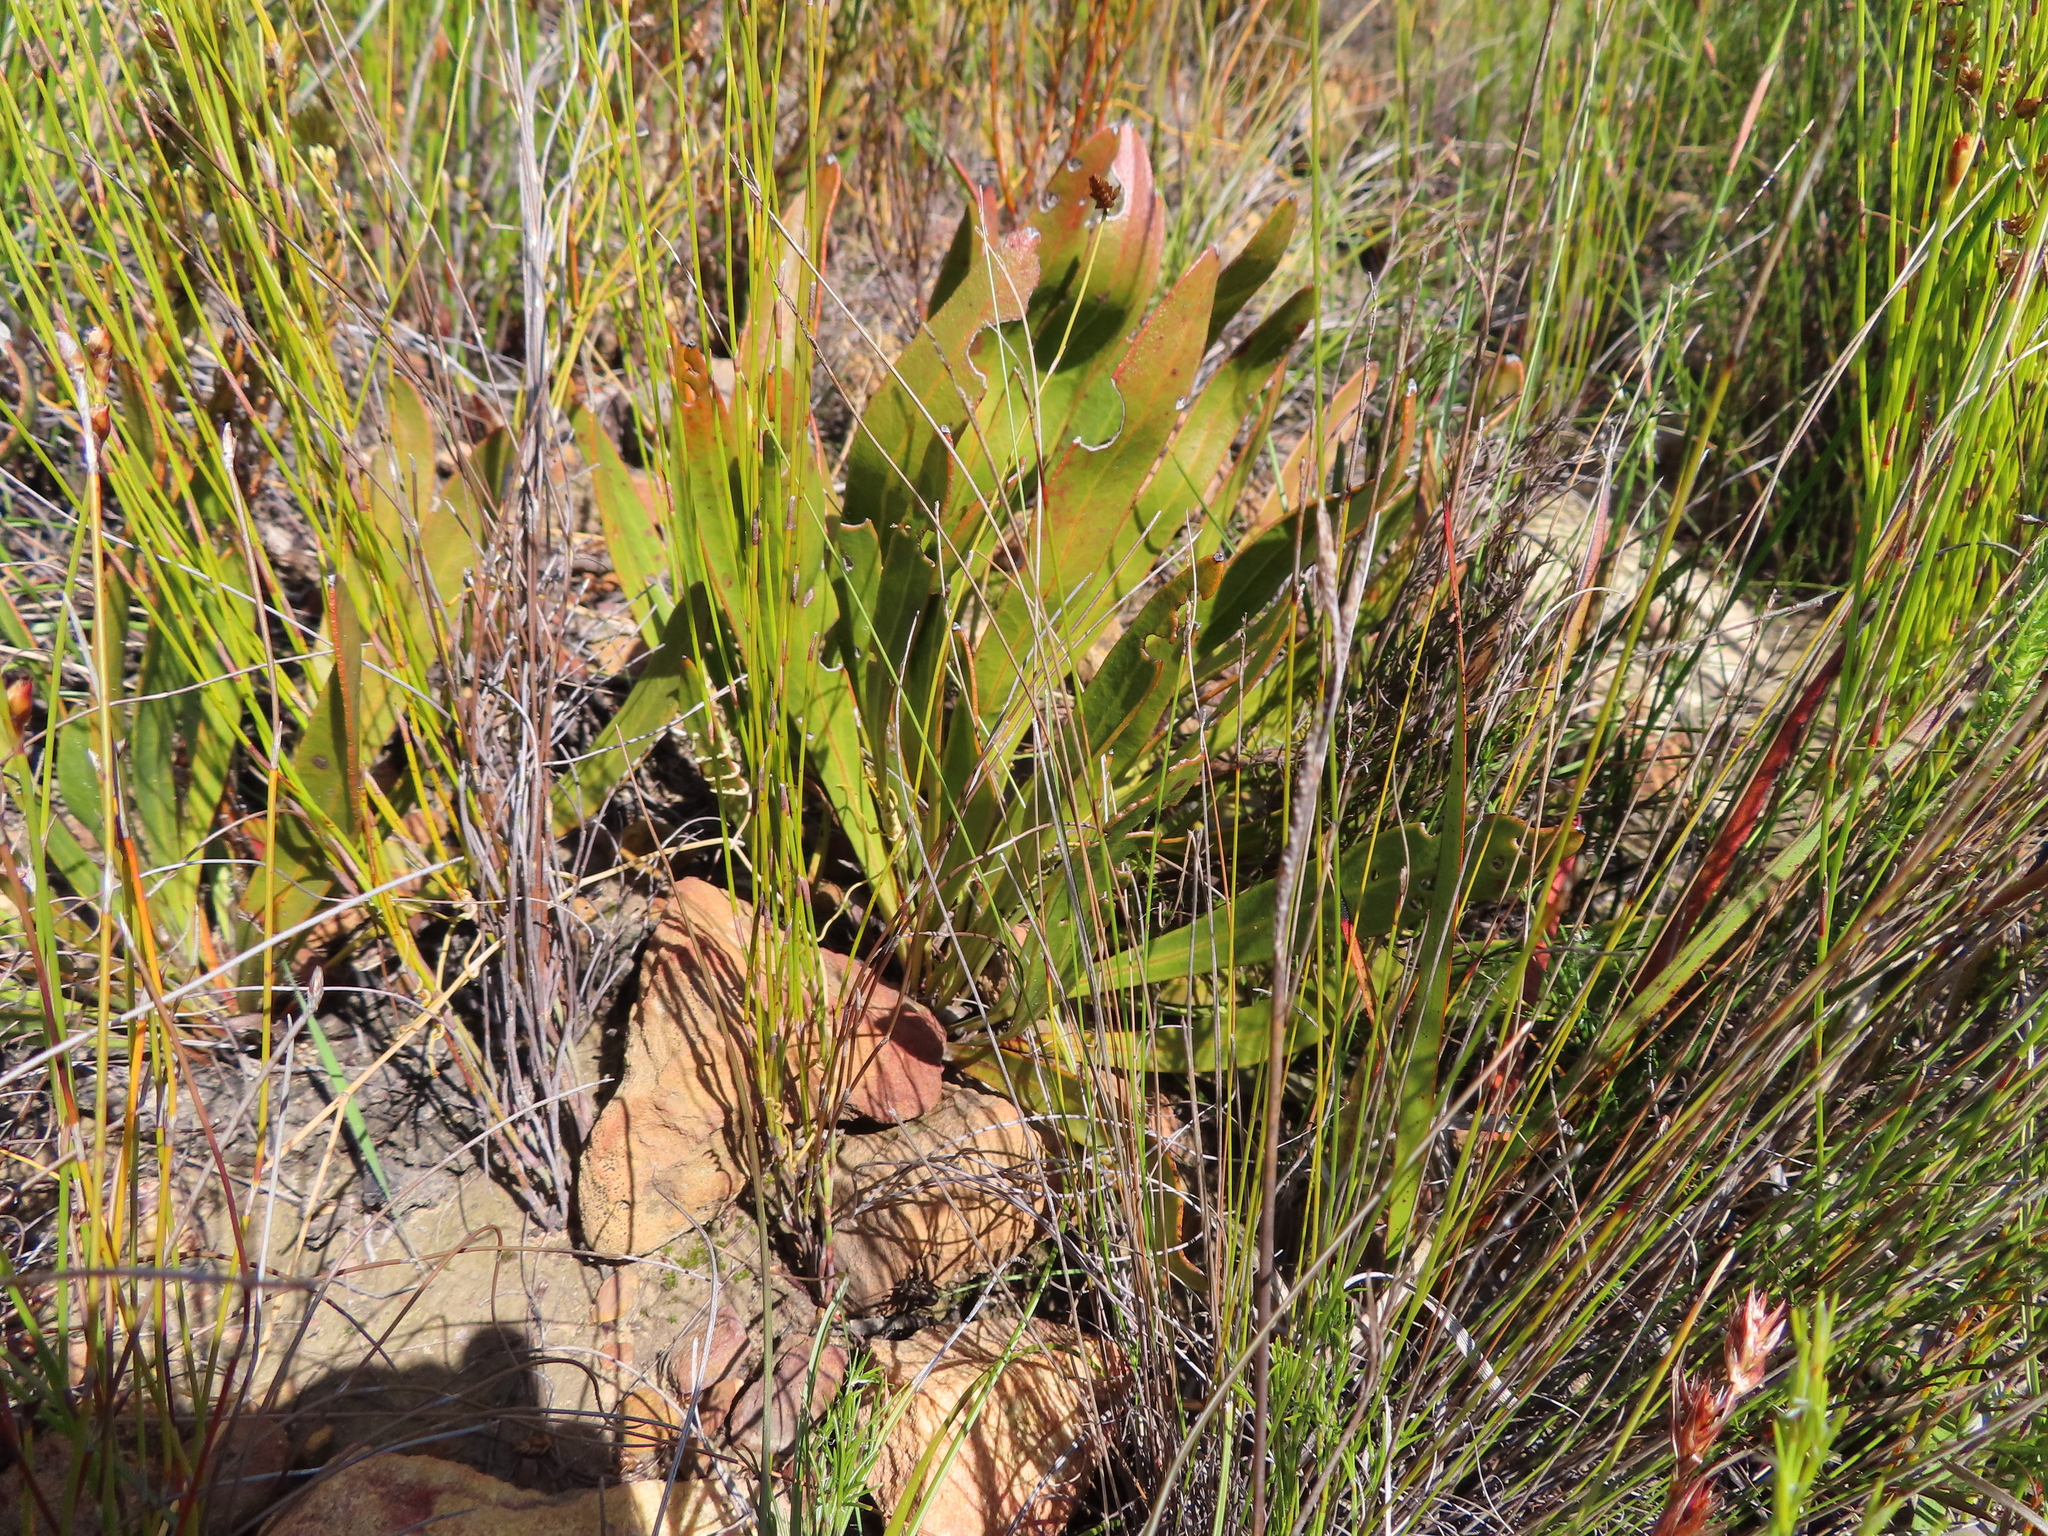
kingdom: Plantae
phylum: Tracheophyta
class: Magnoliopsida
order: Proteales
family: Proteaceae
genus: Protea
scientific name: Protea scabra
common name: Sandpaper-leaf sugarbush
